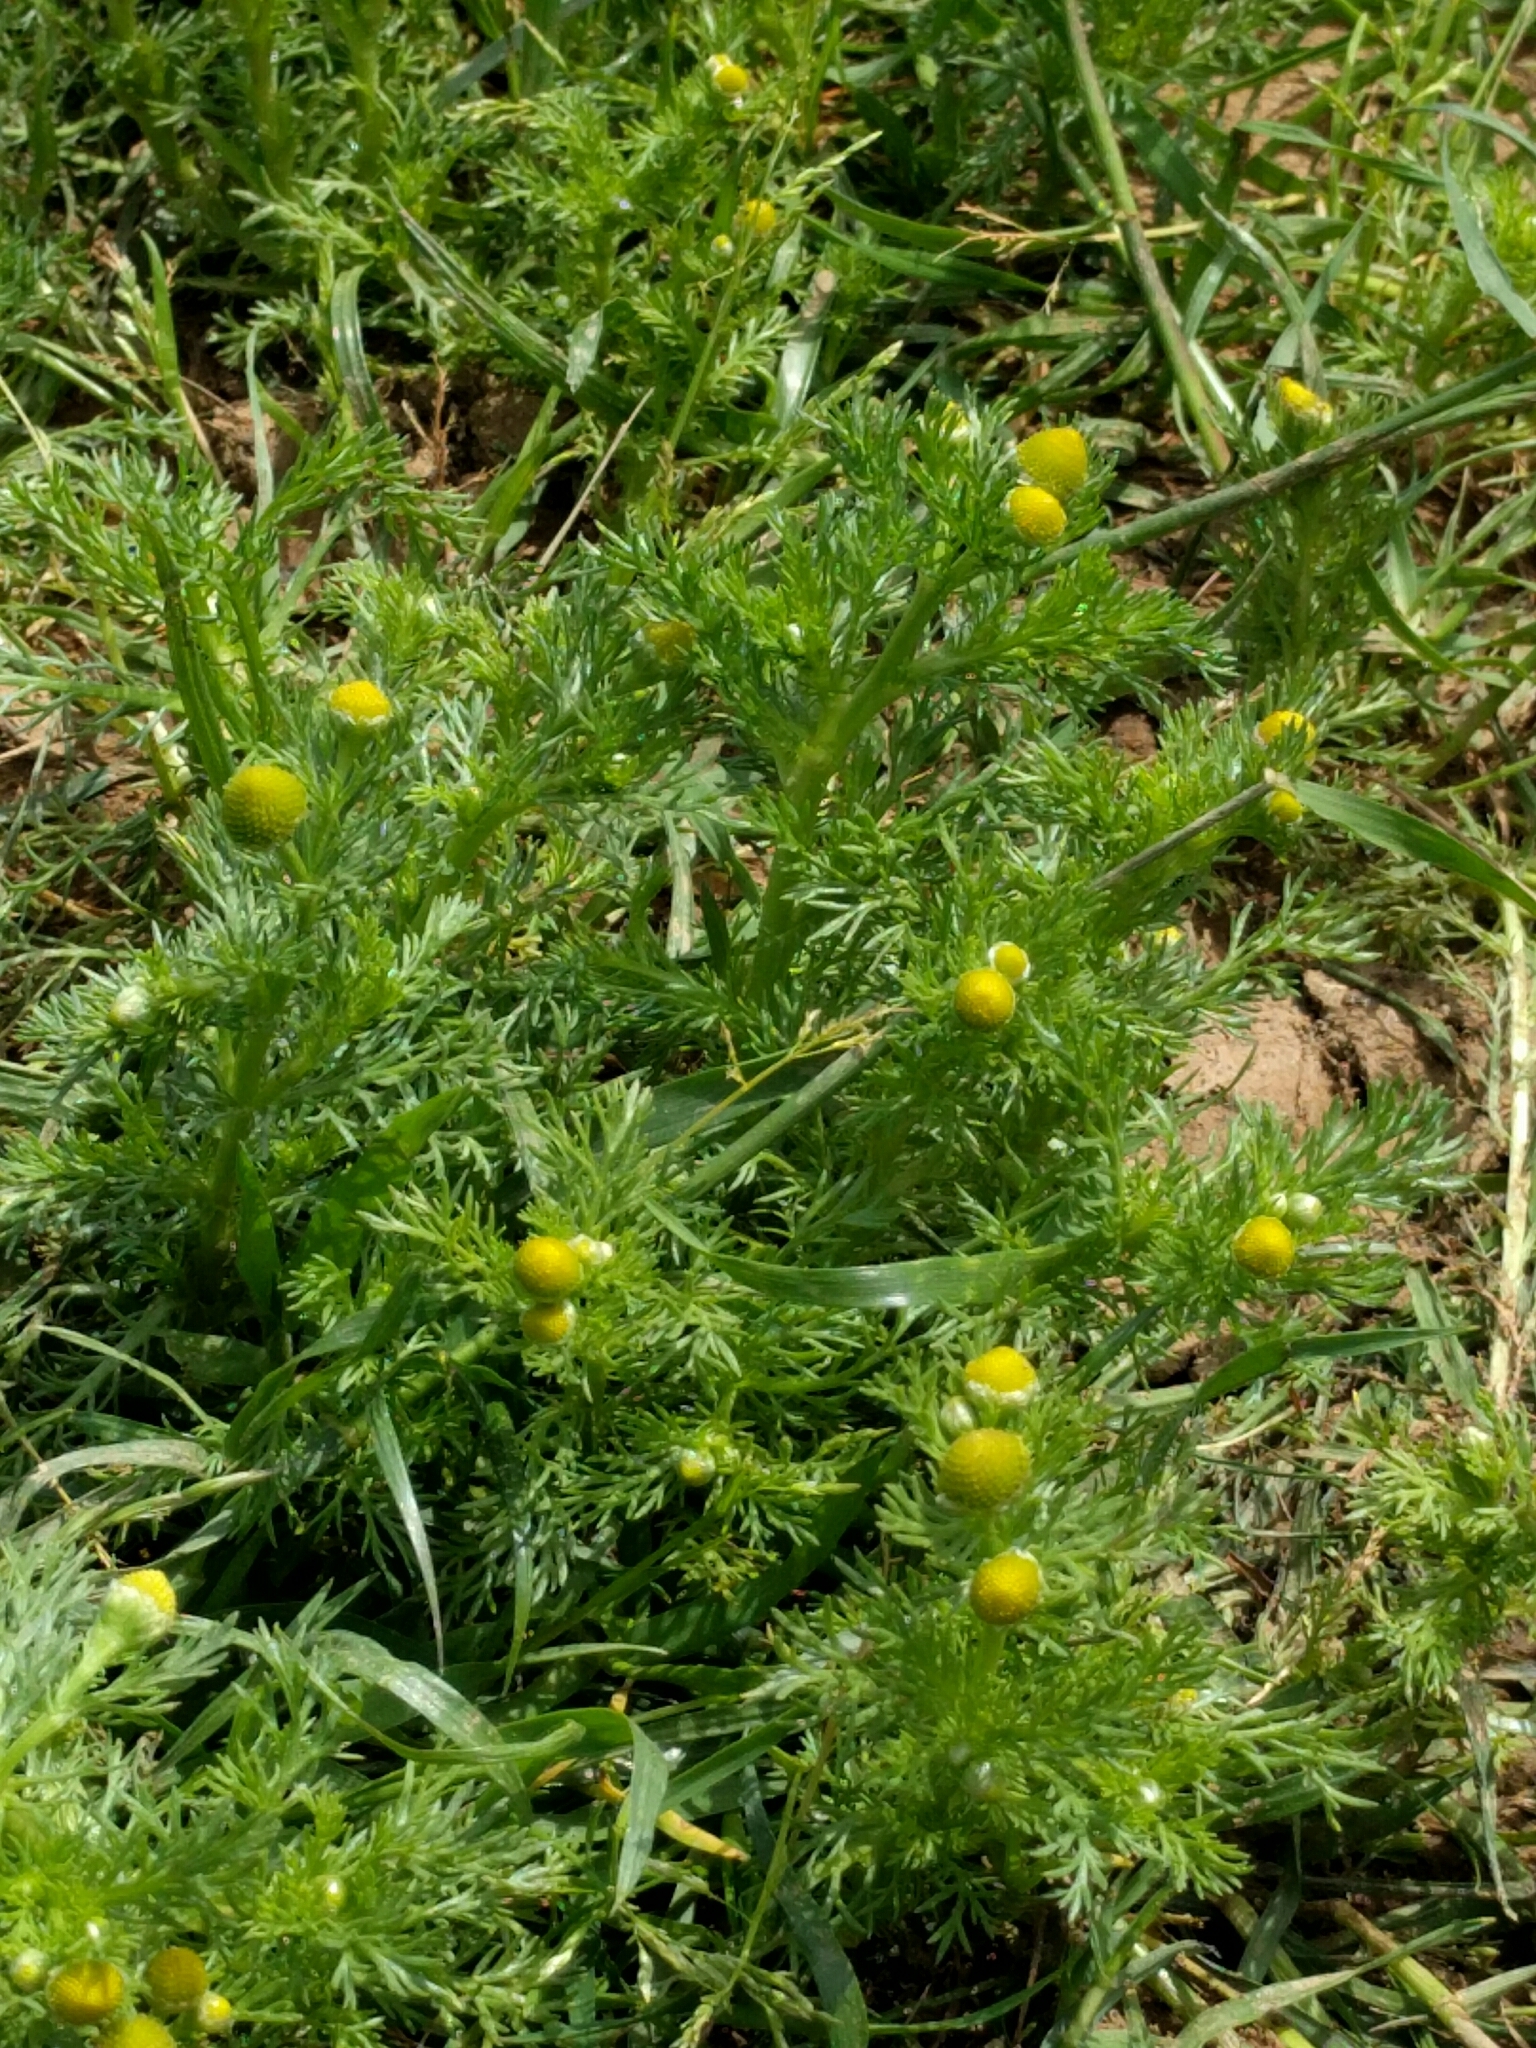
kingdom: Plantae
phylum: Tracheophyta
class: Magnoliopsida
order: Asterales
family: Asteraceae
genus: Matricaria
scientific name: Matricaria discoidea
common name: Disc mayweed
